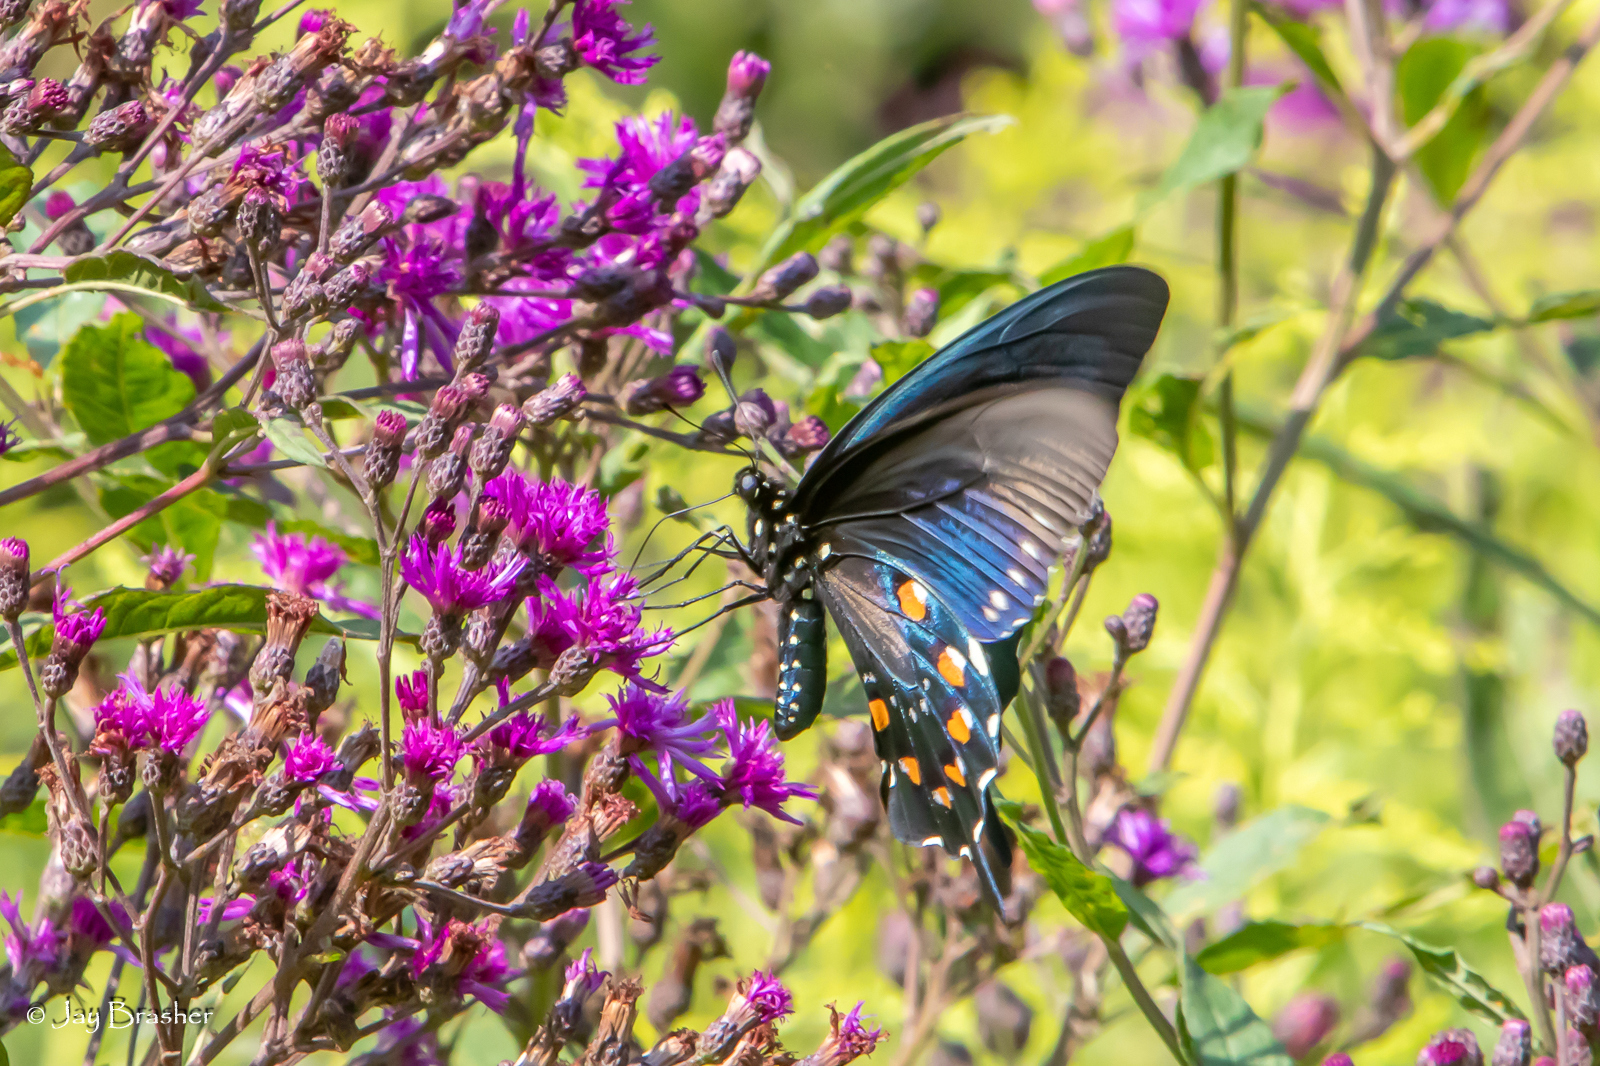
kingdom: Animalia
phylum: Arthropoda
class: Insecta
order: Lepidoptera
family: Papilionidae
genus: Battus
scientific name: Battus philenor
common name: Pipevine swallowtail
